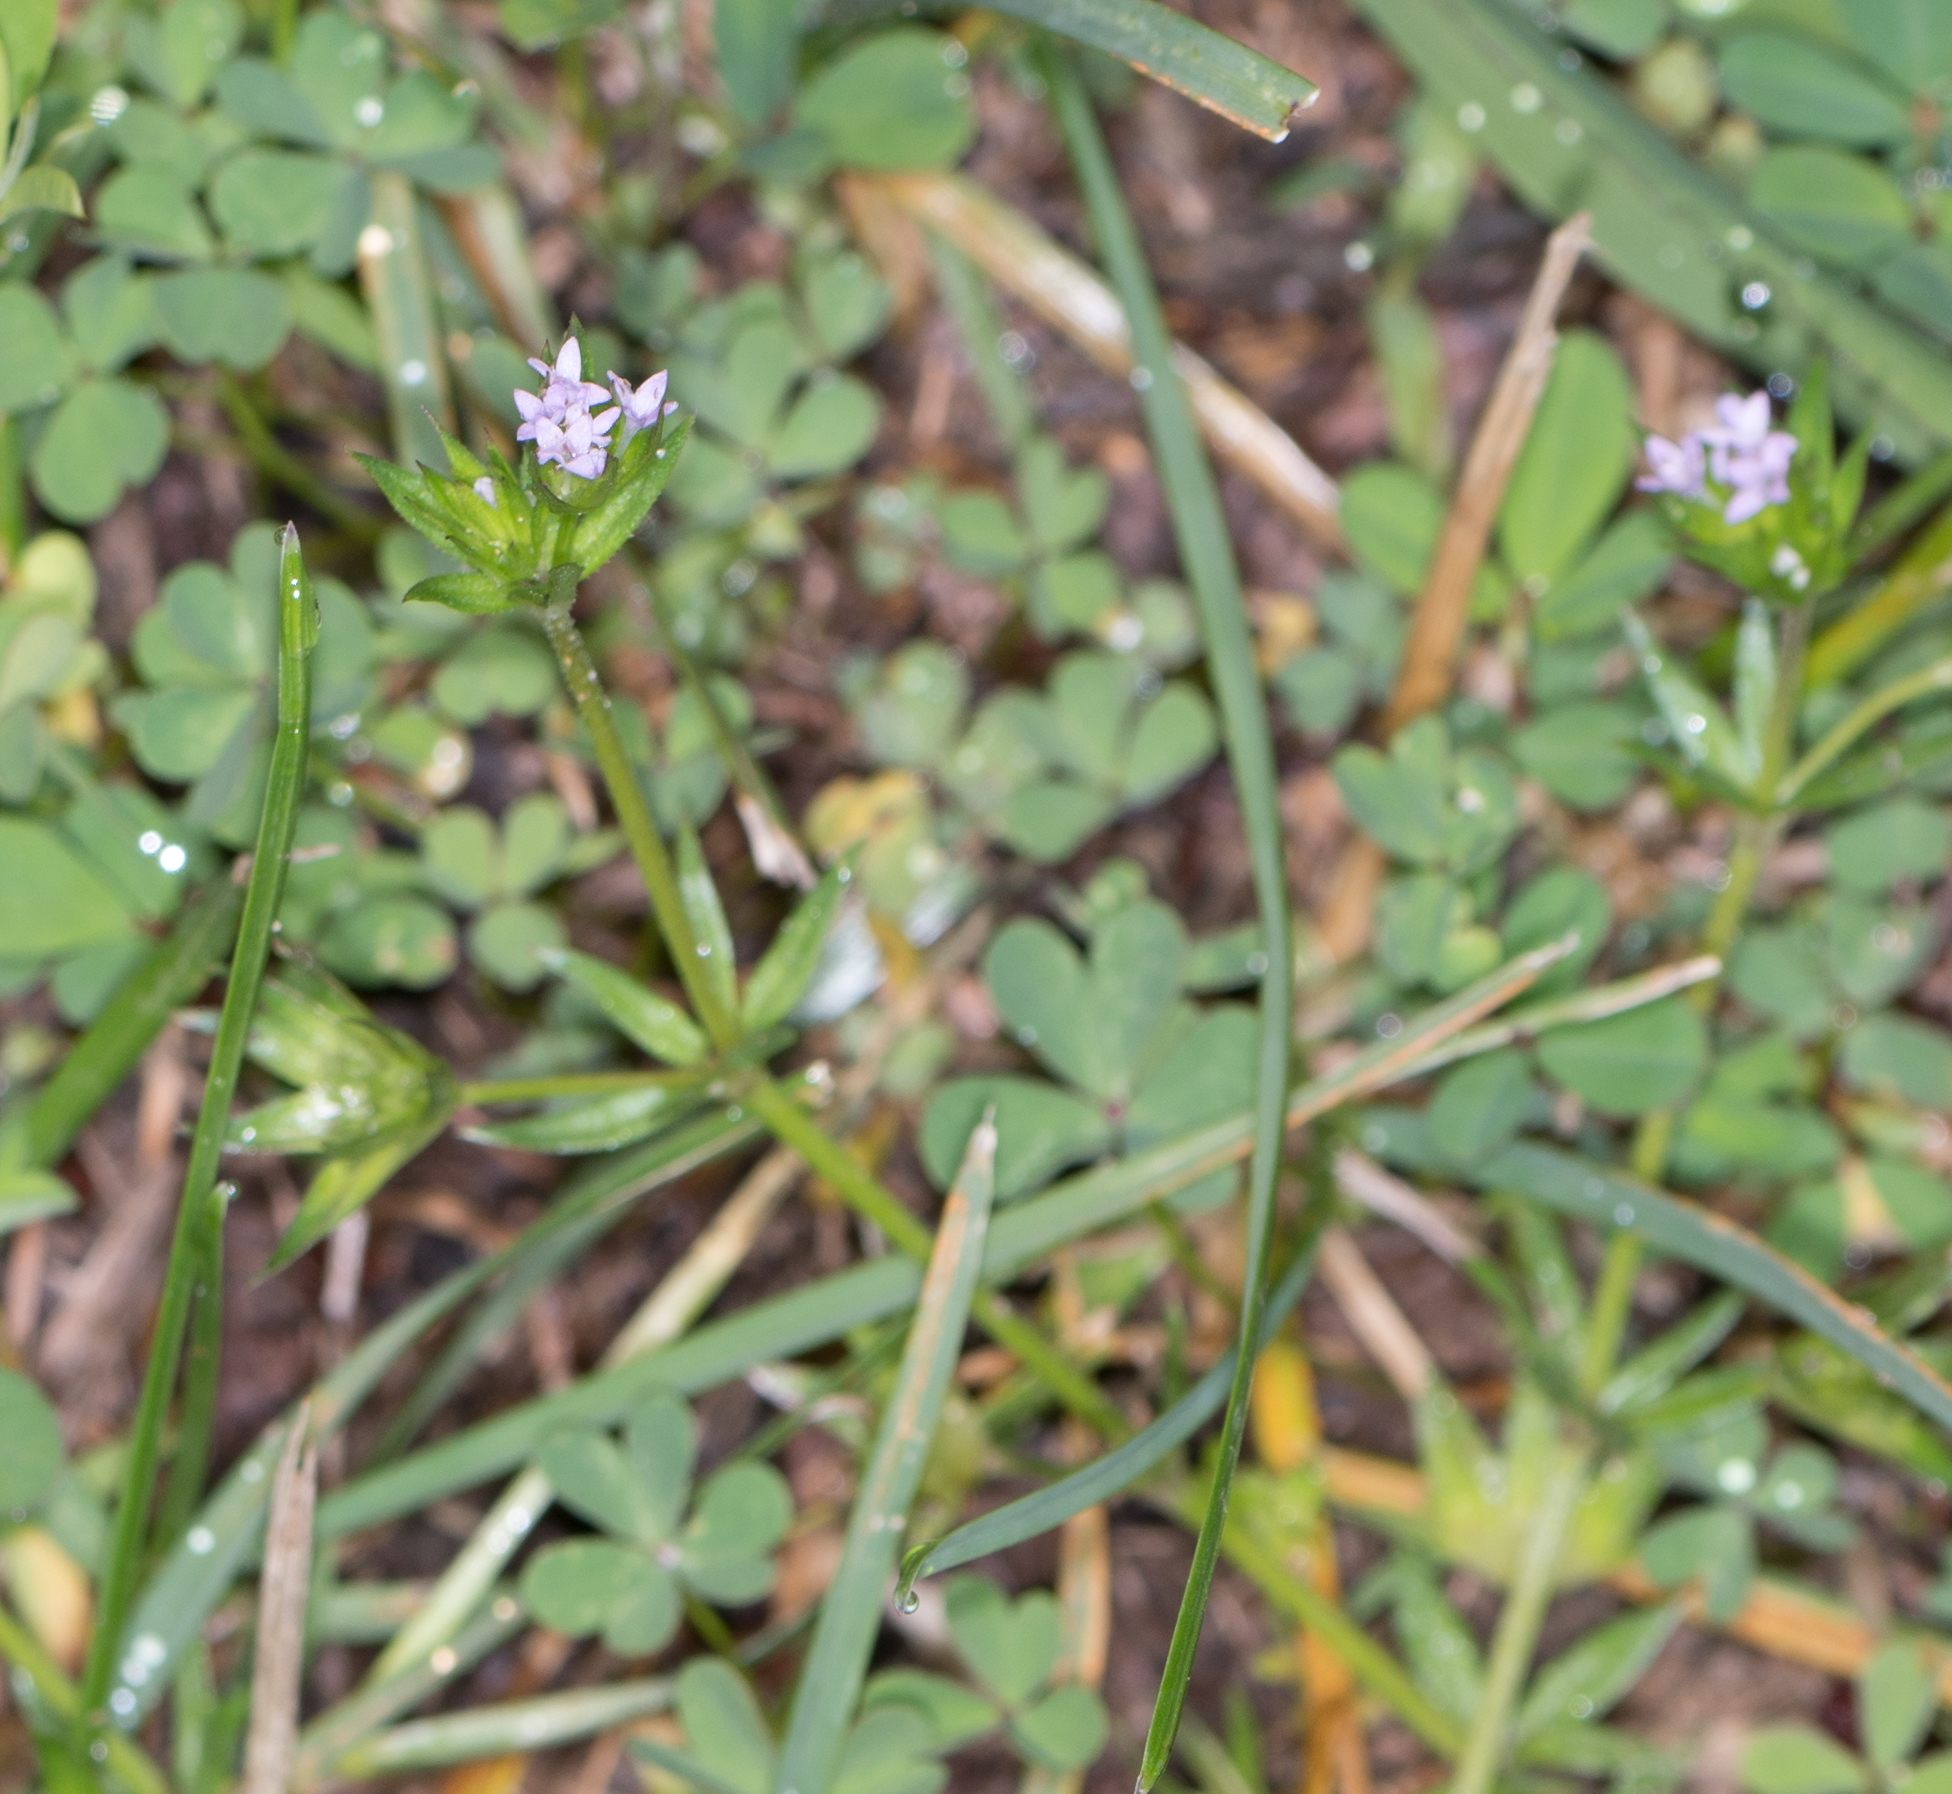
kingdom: Plantae
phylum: Tracheophyta
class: Magnoliopsida
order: Gentianales
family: Rubiaceae
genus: Sherardia
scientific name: Sherardia arvensis
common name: Field madder
